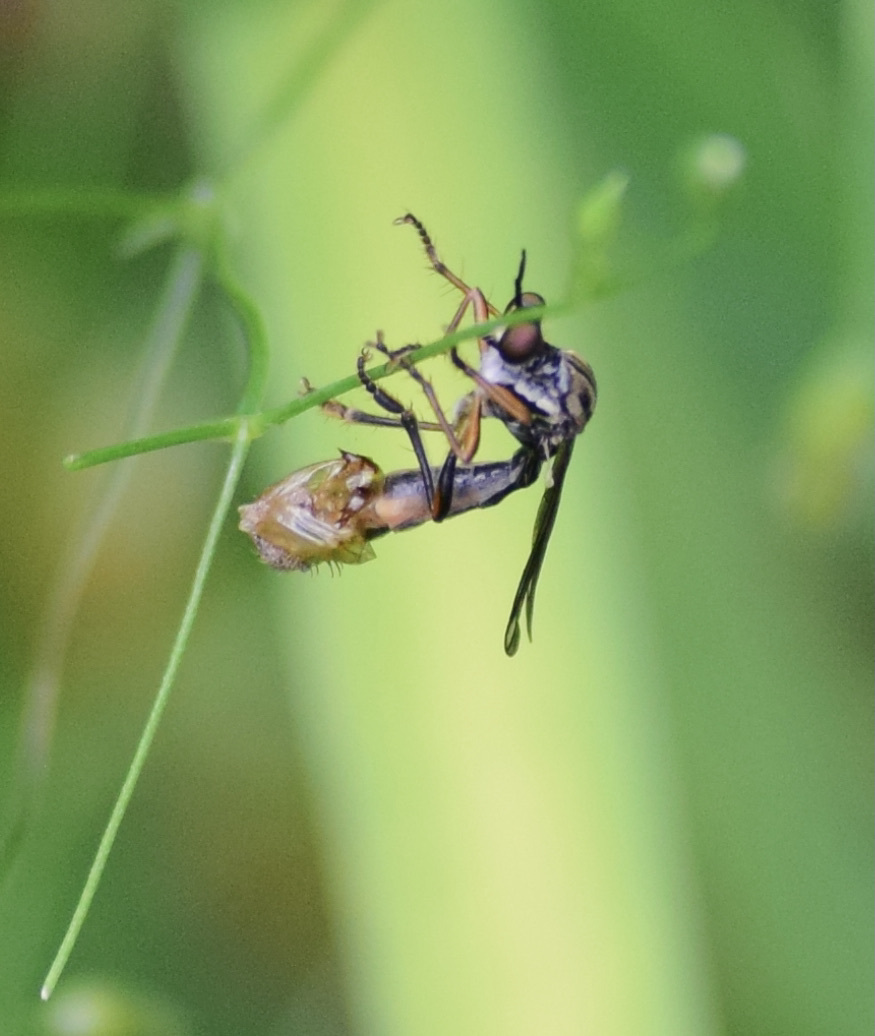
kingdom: Animalia
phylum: Arthropoda
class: Insecta
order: Diptera
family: Asilidae
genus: Dioctria
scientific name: Dioctria hyalipennis
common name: Stripe-legged robberfly
